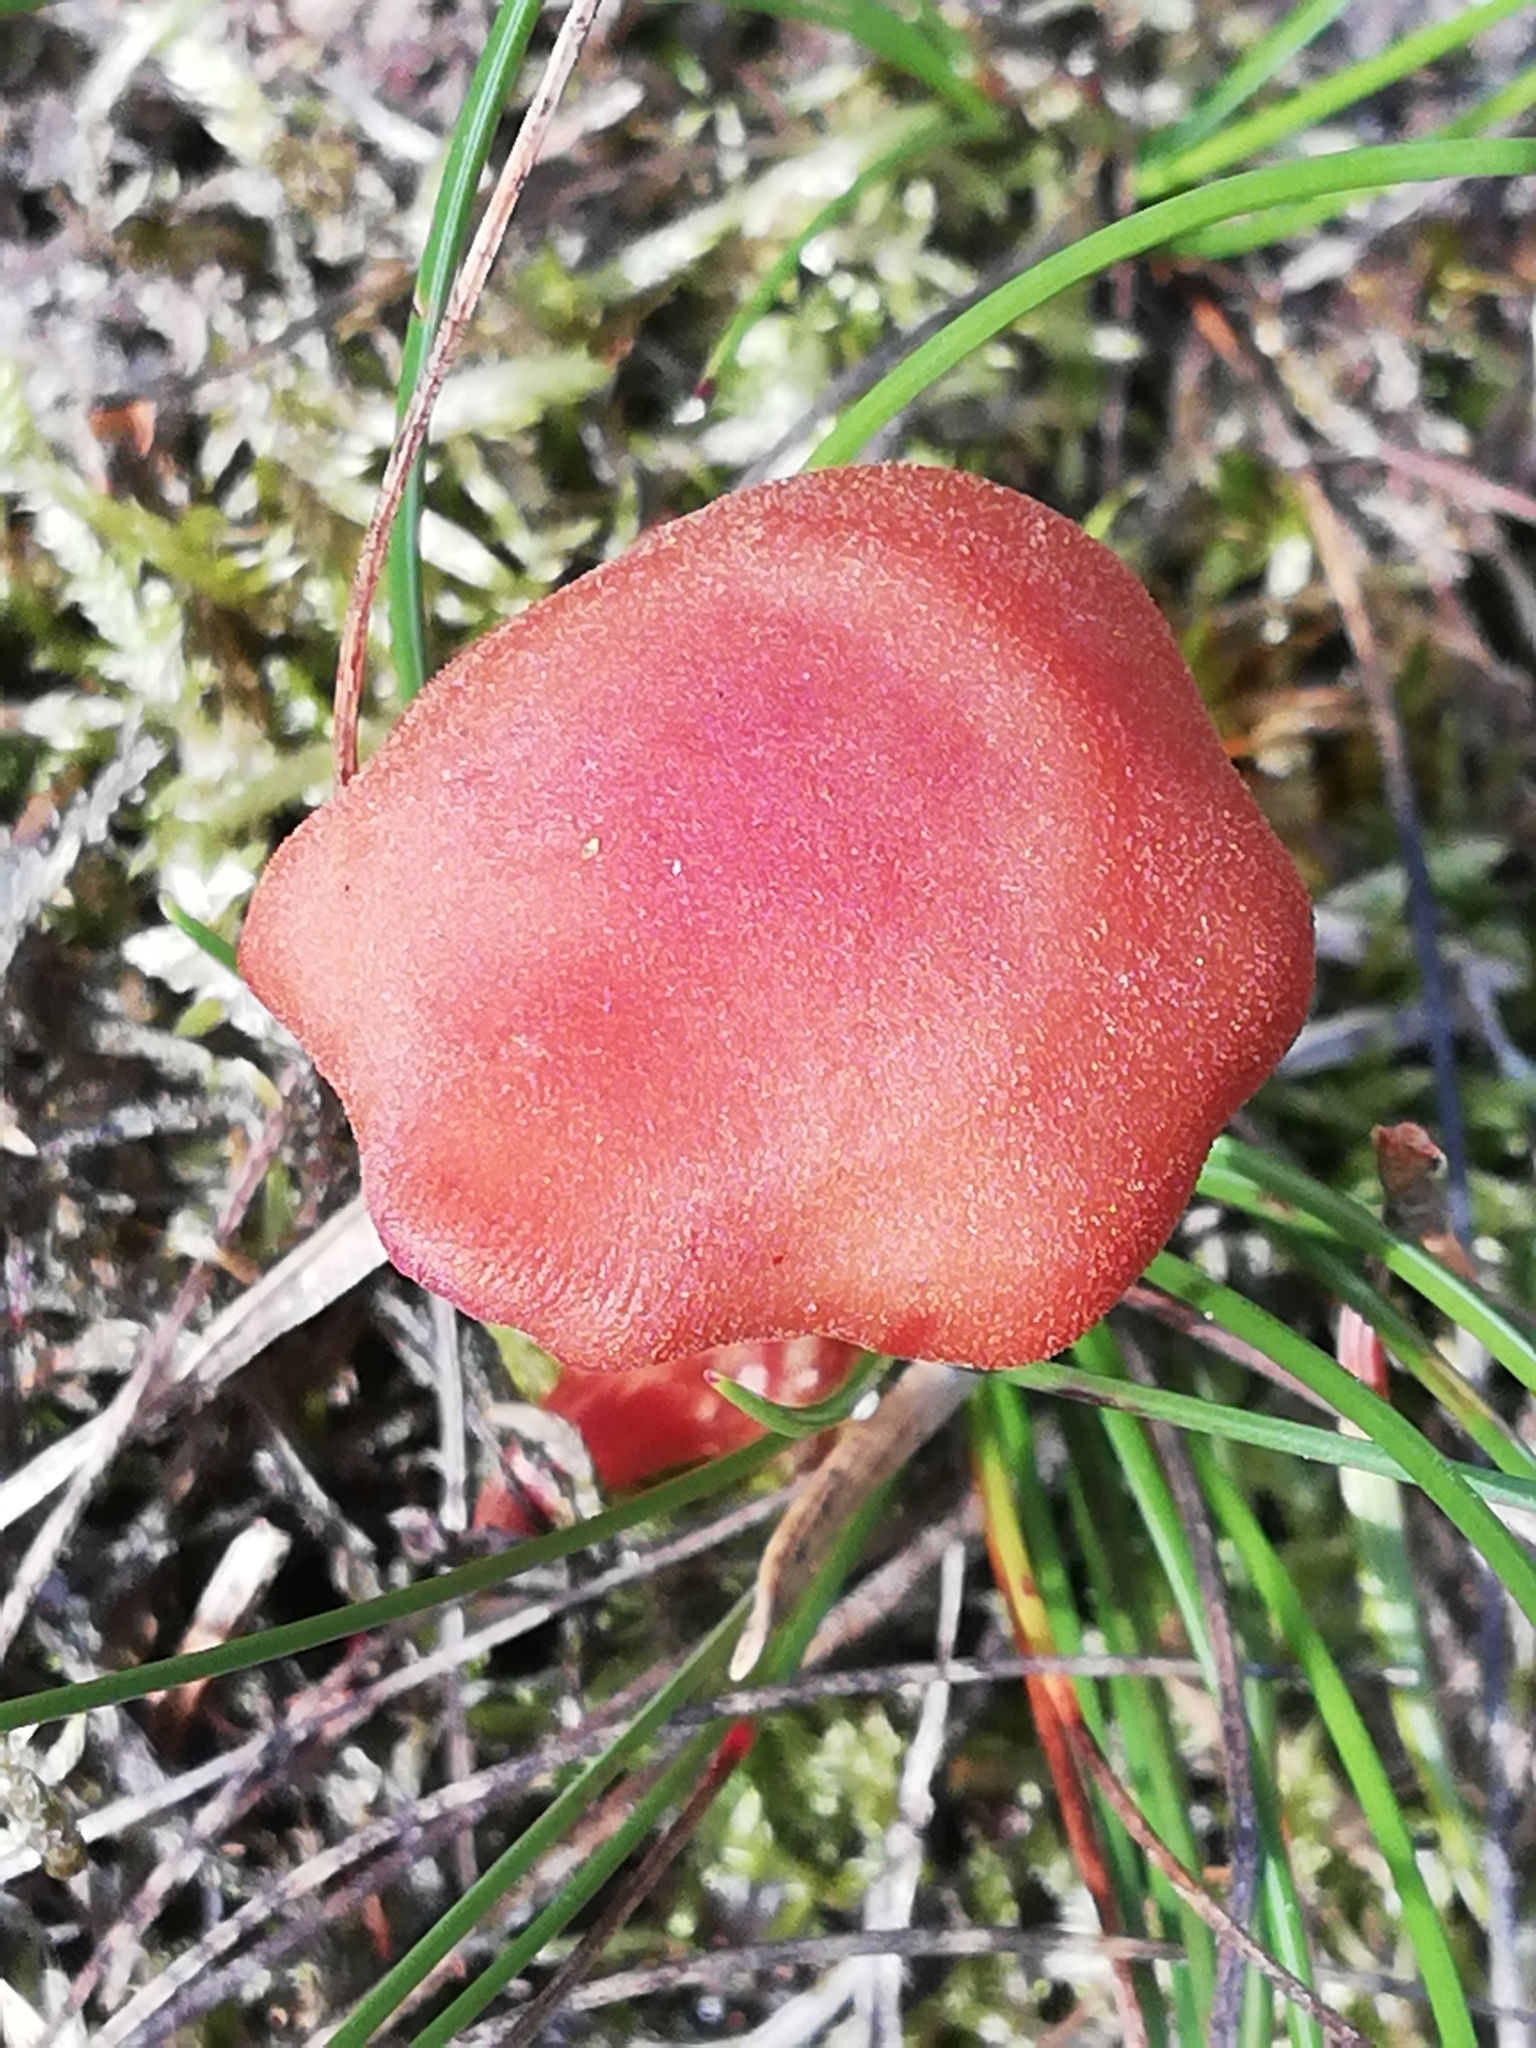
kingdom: Fungi
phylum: Basidiomycota
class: Agaricomycetes
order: Agaricales
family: Hydnangiaceae
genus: Laccaria
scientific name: Laccaria laccata
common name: Deceiver
